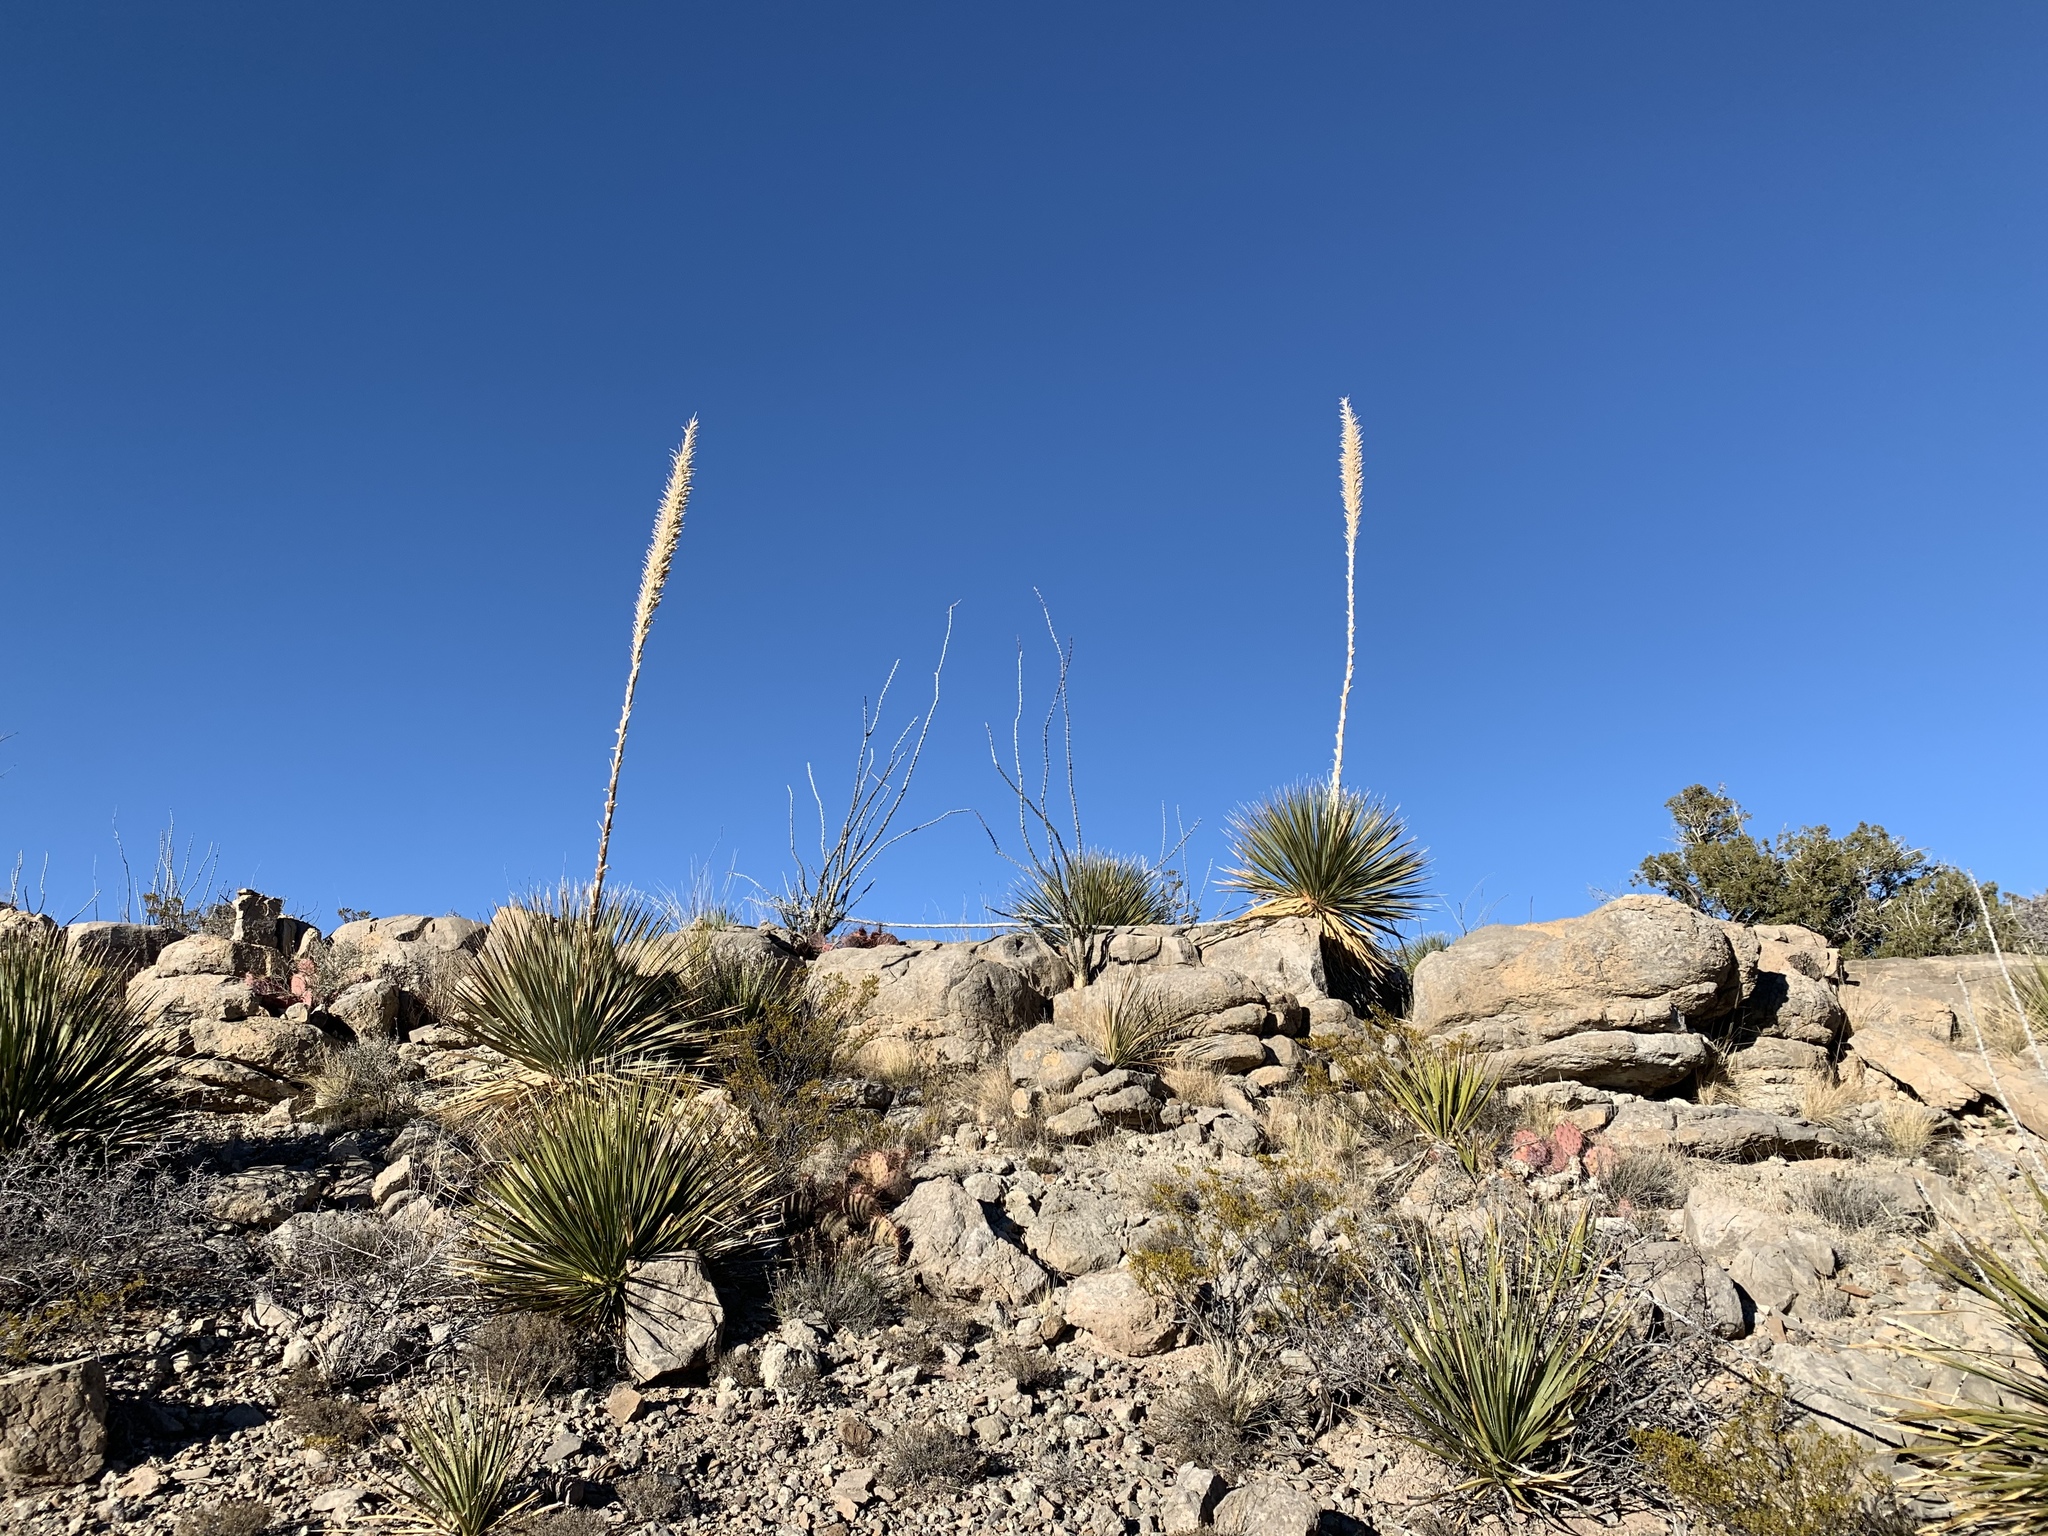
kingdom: Plantae
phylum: Tracheophyta
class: Liliopsida
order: Asparagales
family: Asparagaceae
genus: Dasylirion
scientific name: Dasylirion wheeleri
